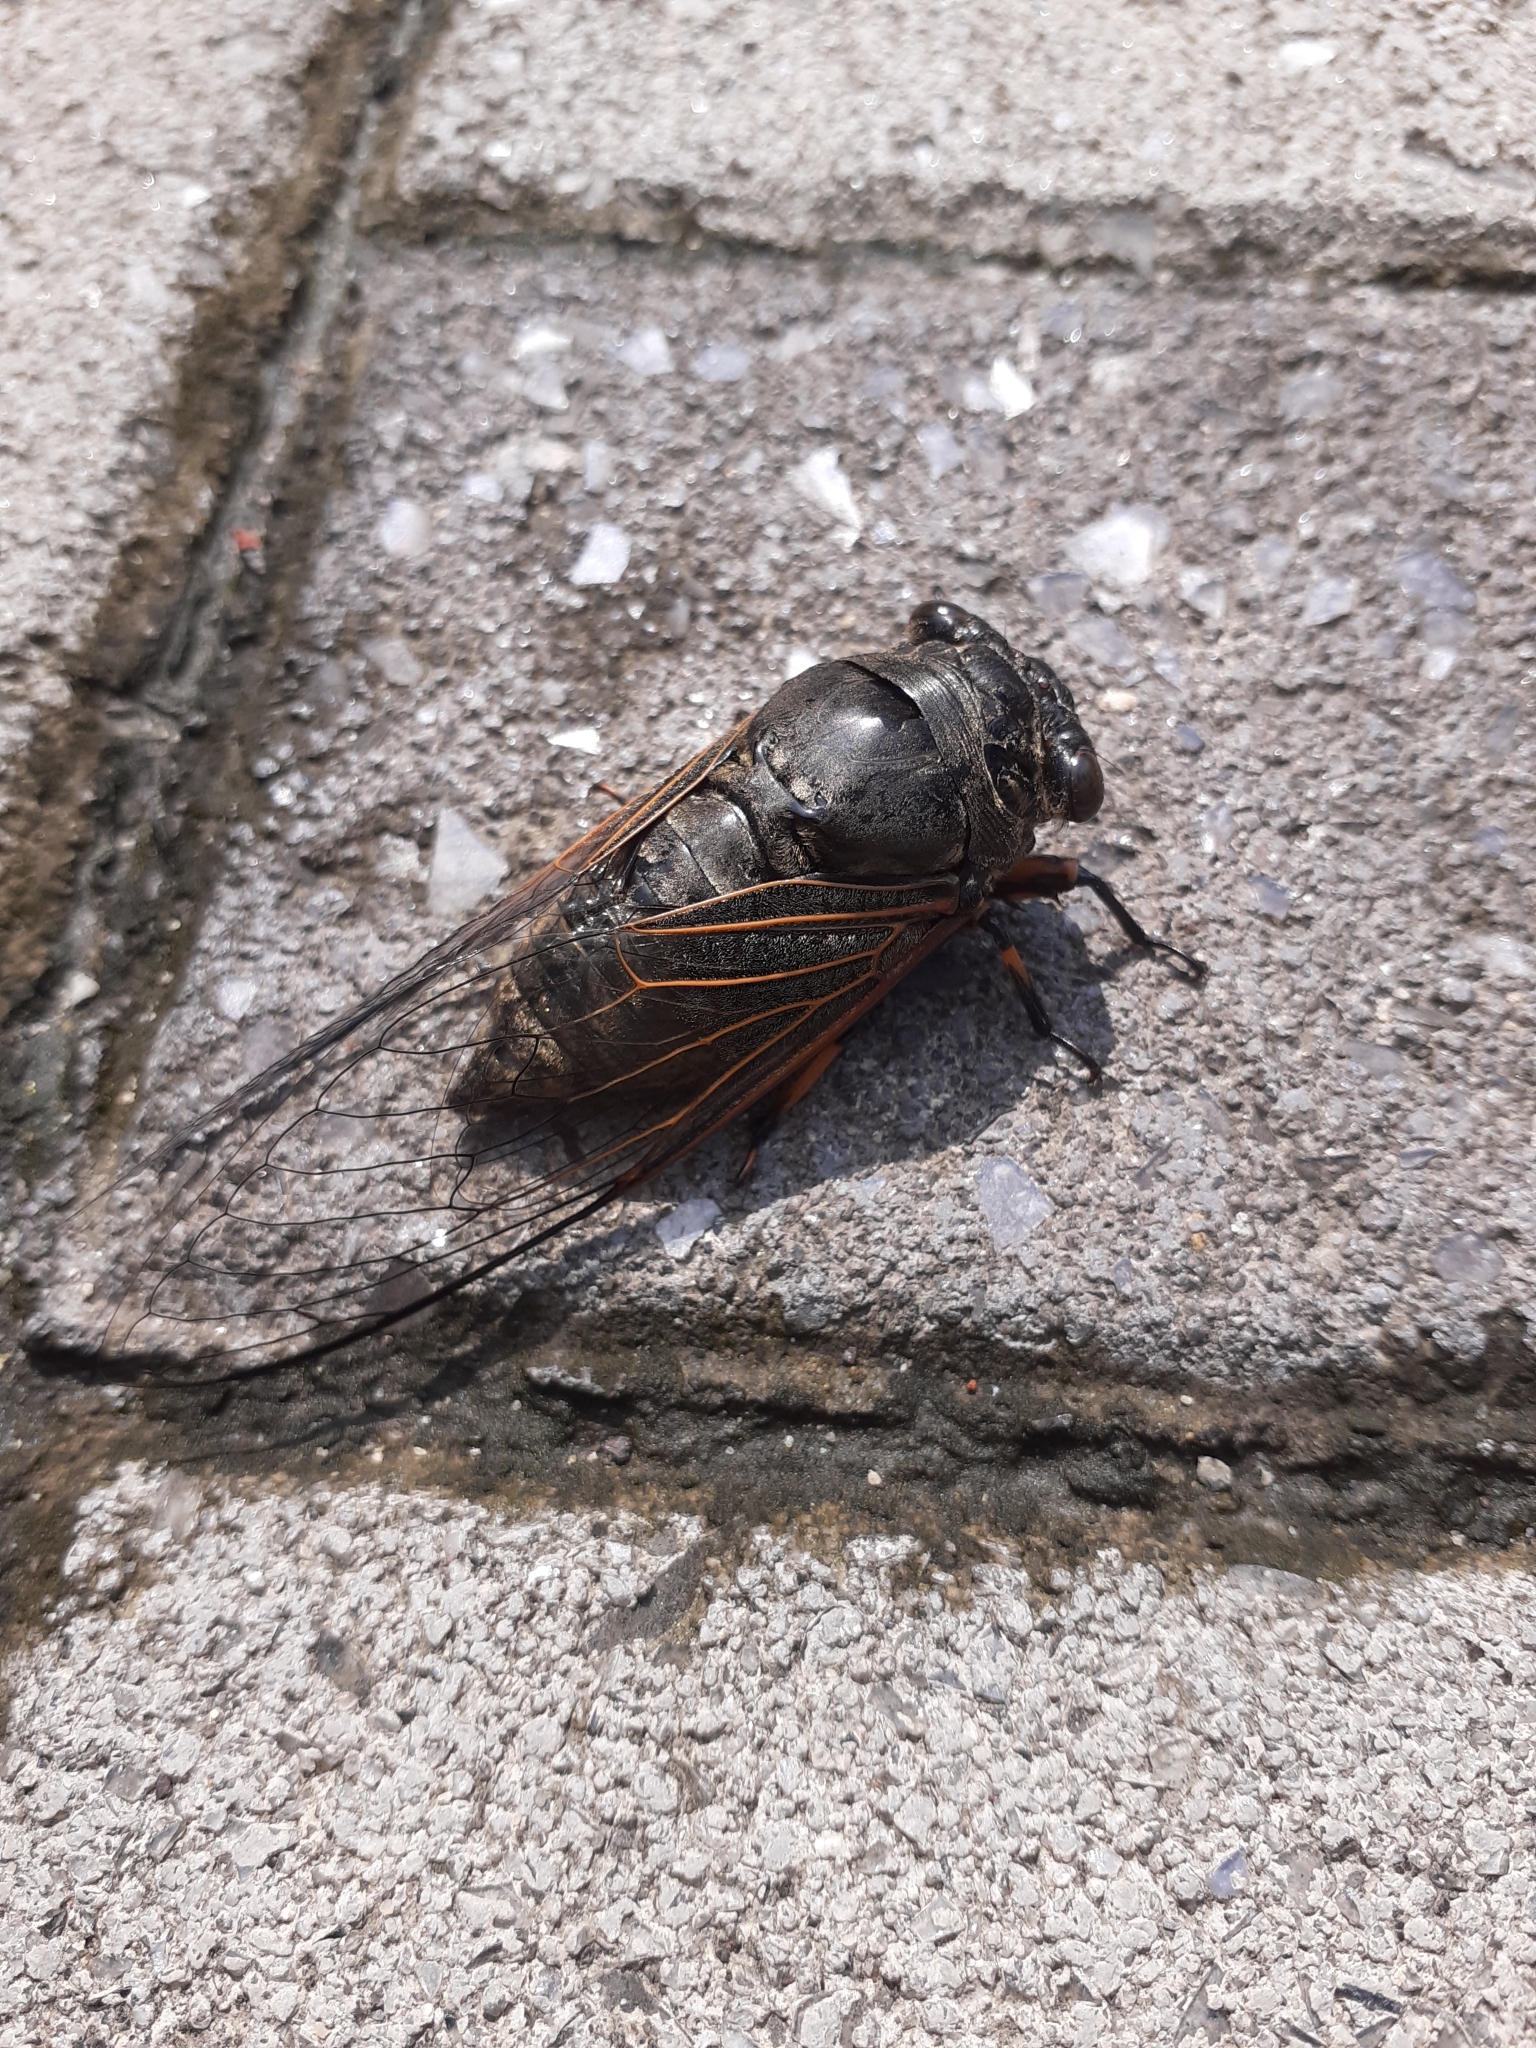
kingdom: Animalia
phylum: Arthropoda
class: Insecta
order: Hemiptera
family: Cicadidae
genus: Cryptotympana
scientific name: Cryptotympana atrata
